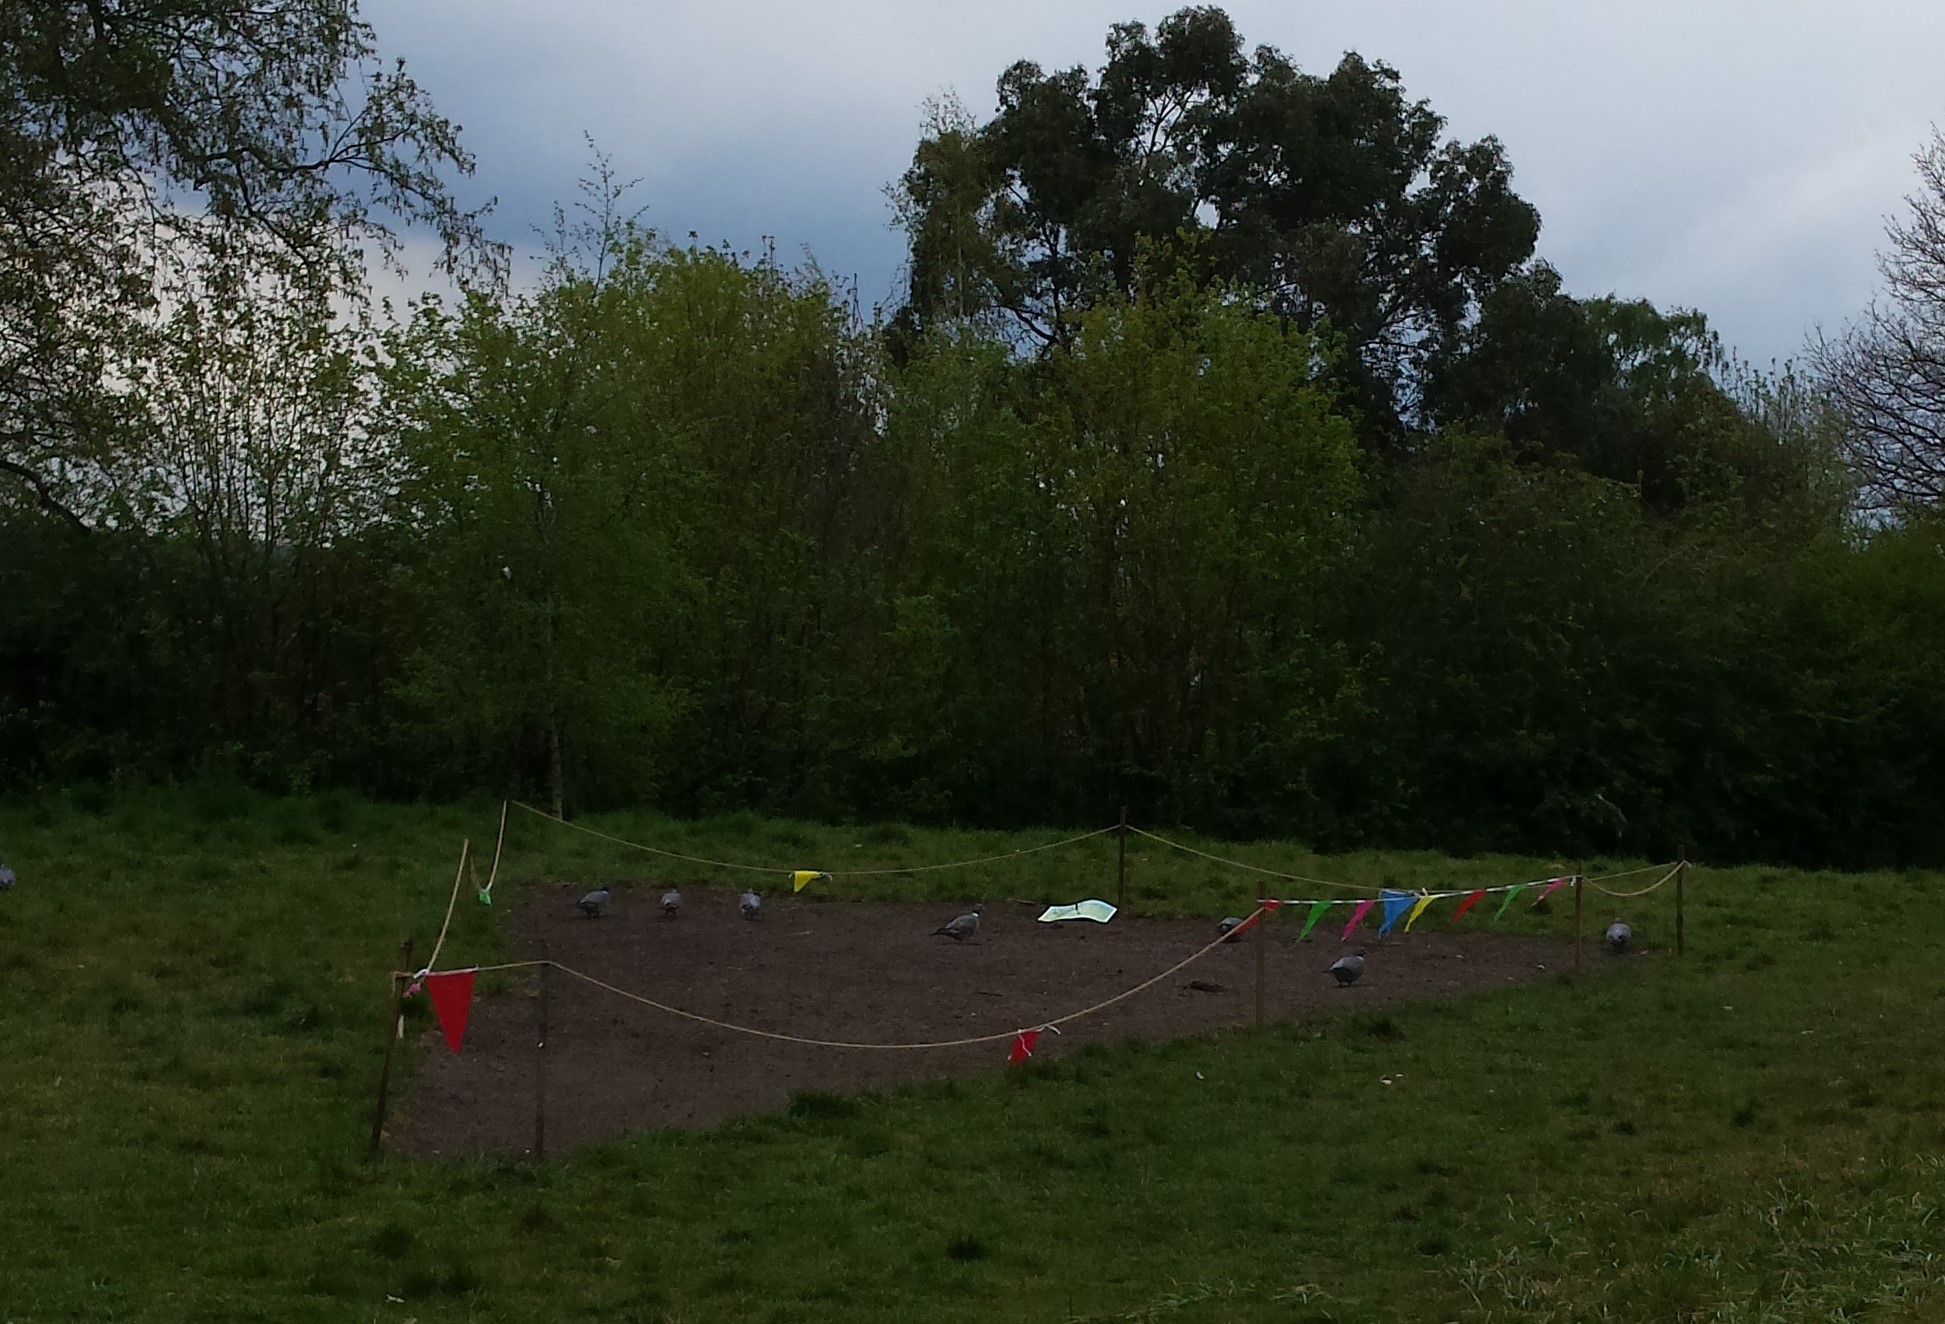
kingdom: Animalia
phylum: Chordata
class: Aves
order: Columbiformes
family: Columbidae
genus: Columba
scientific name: Columba palumbus
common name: Common wood pigeon
